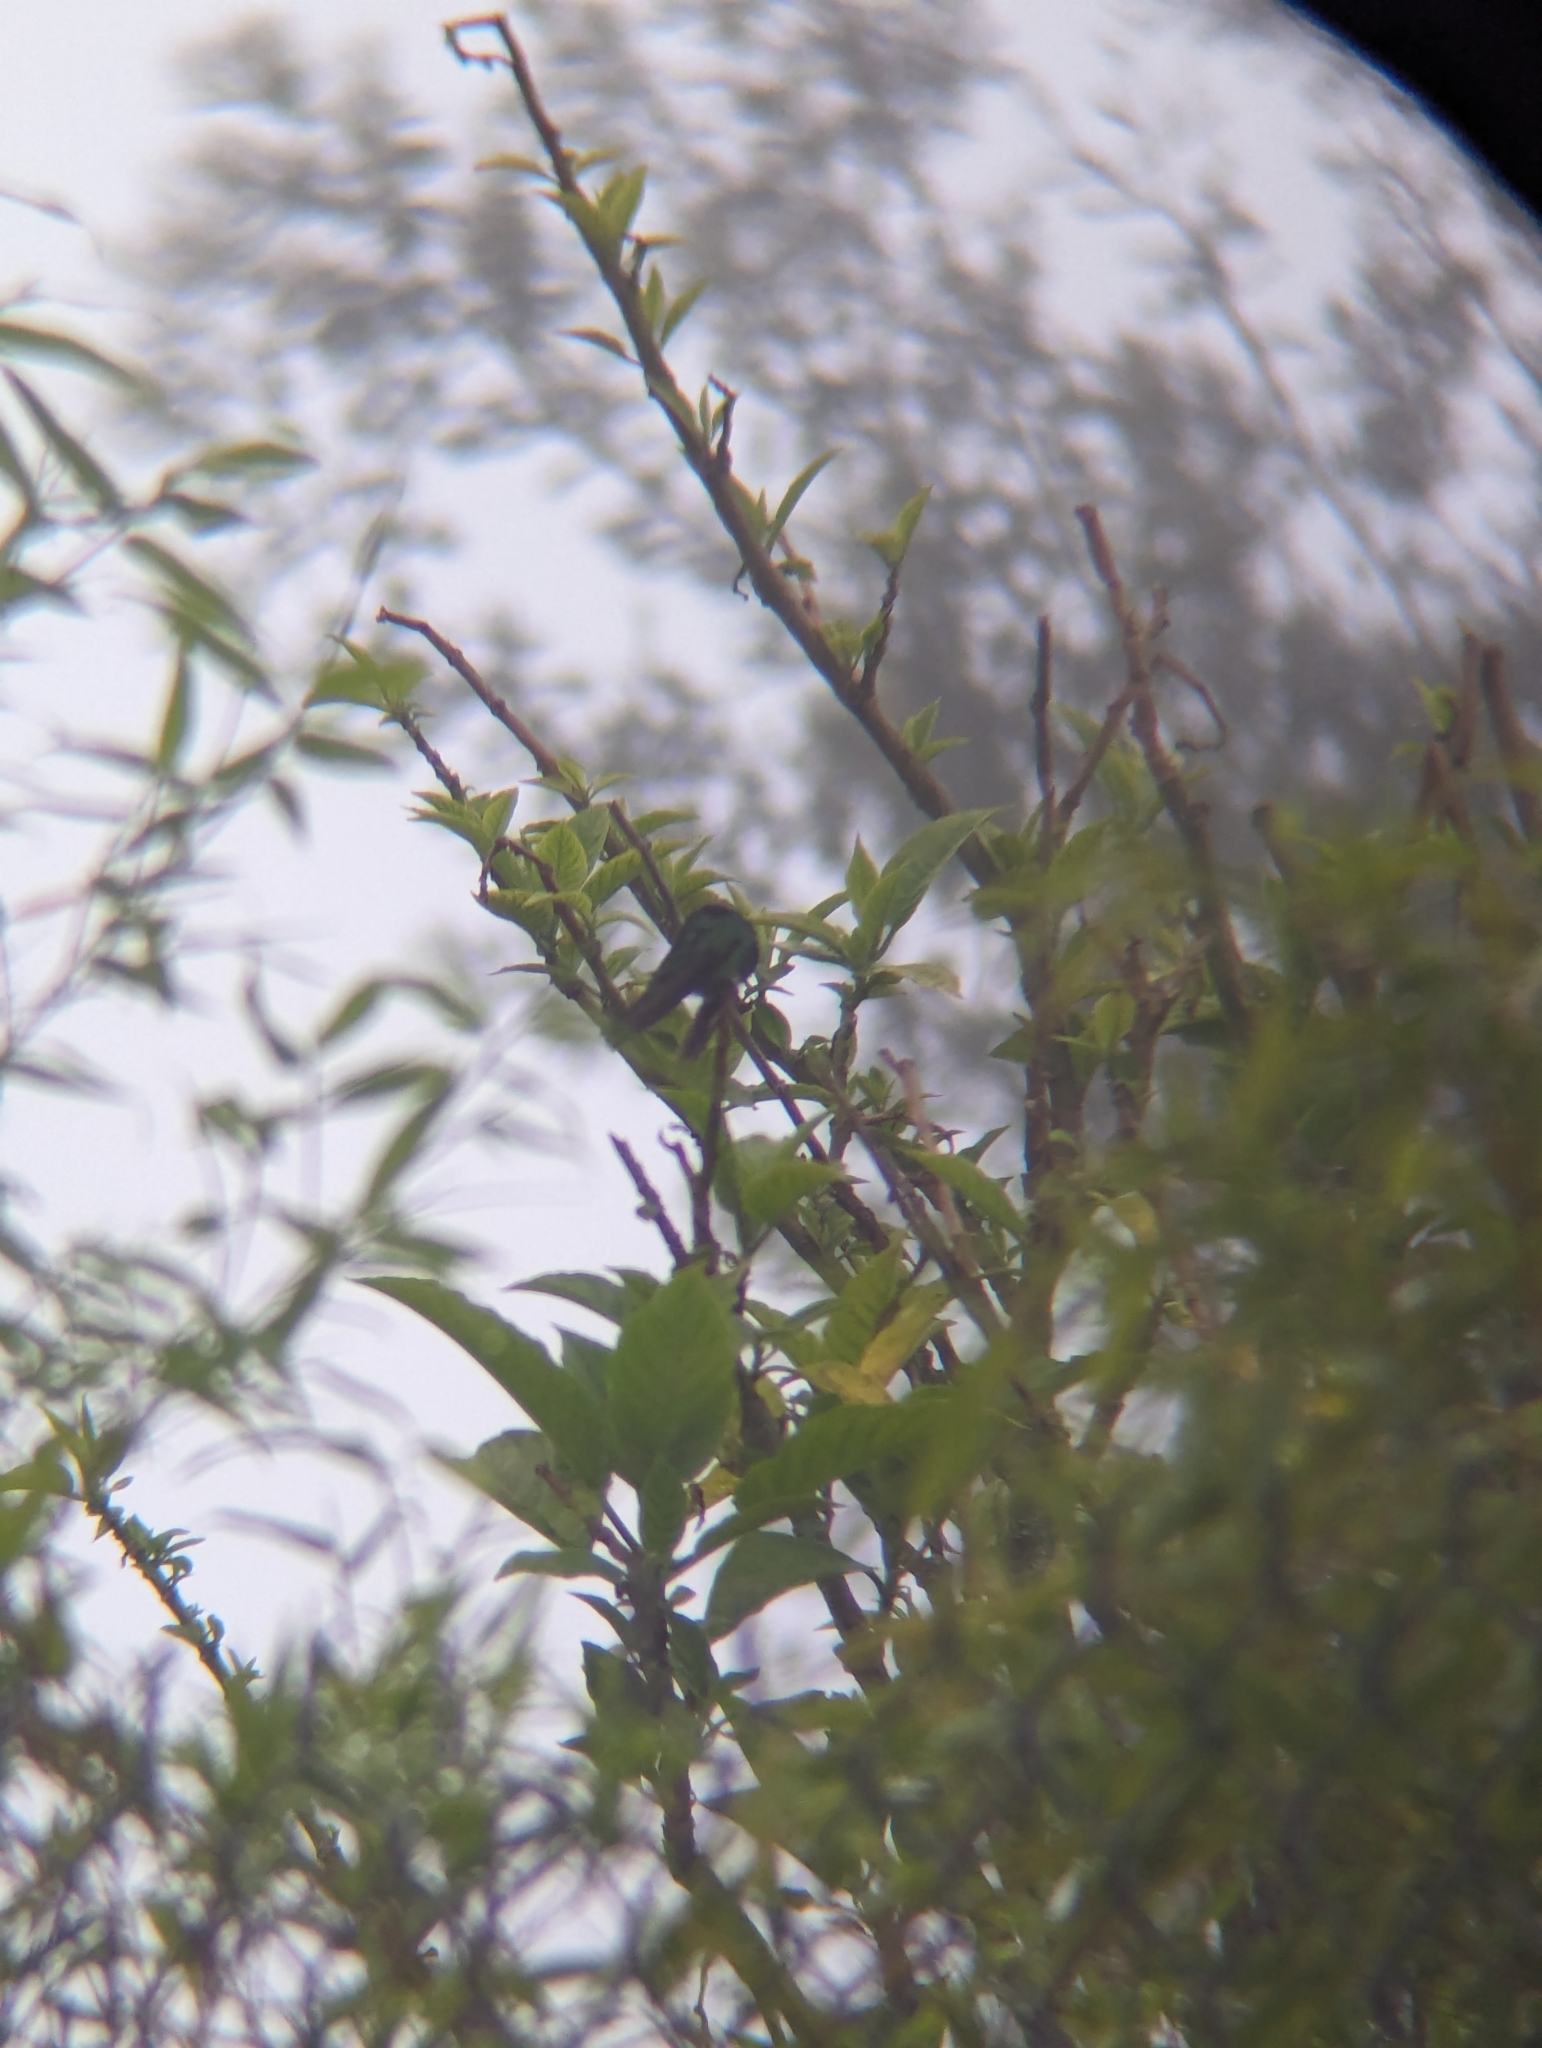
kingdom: Animalia
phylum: Chordata
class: Aves
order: Apodiformes
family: Trochilidae
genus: Colibri
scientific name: Colibri coruscans
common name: Sparkling violetear
